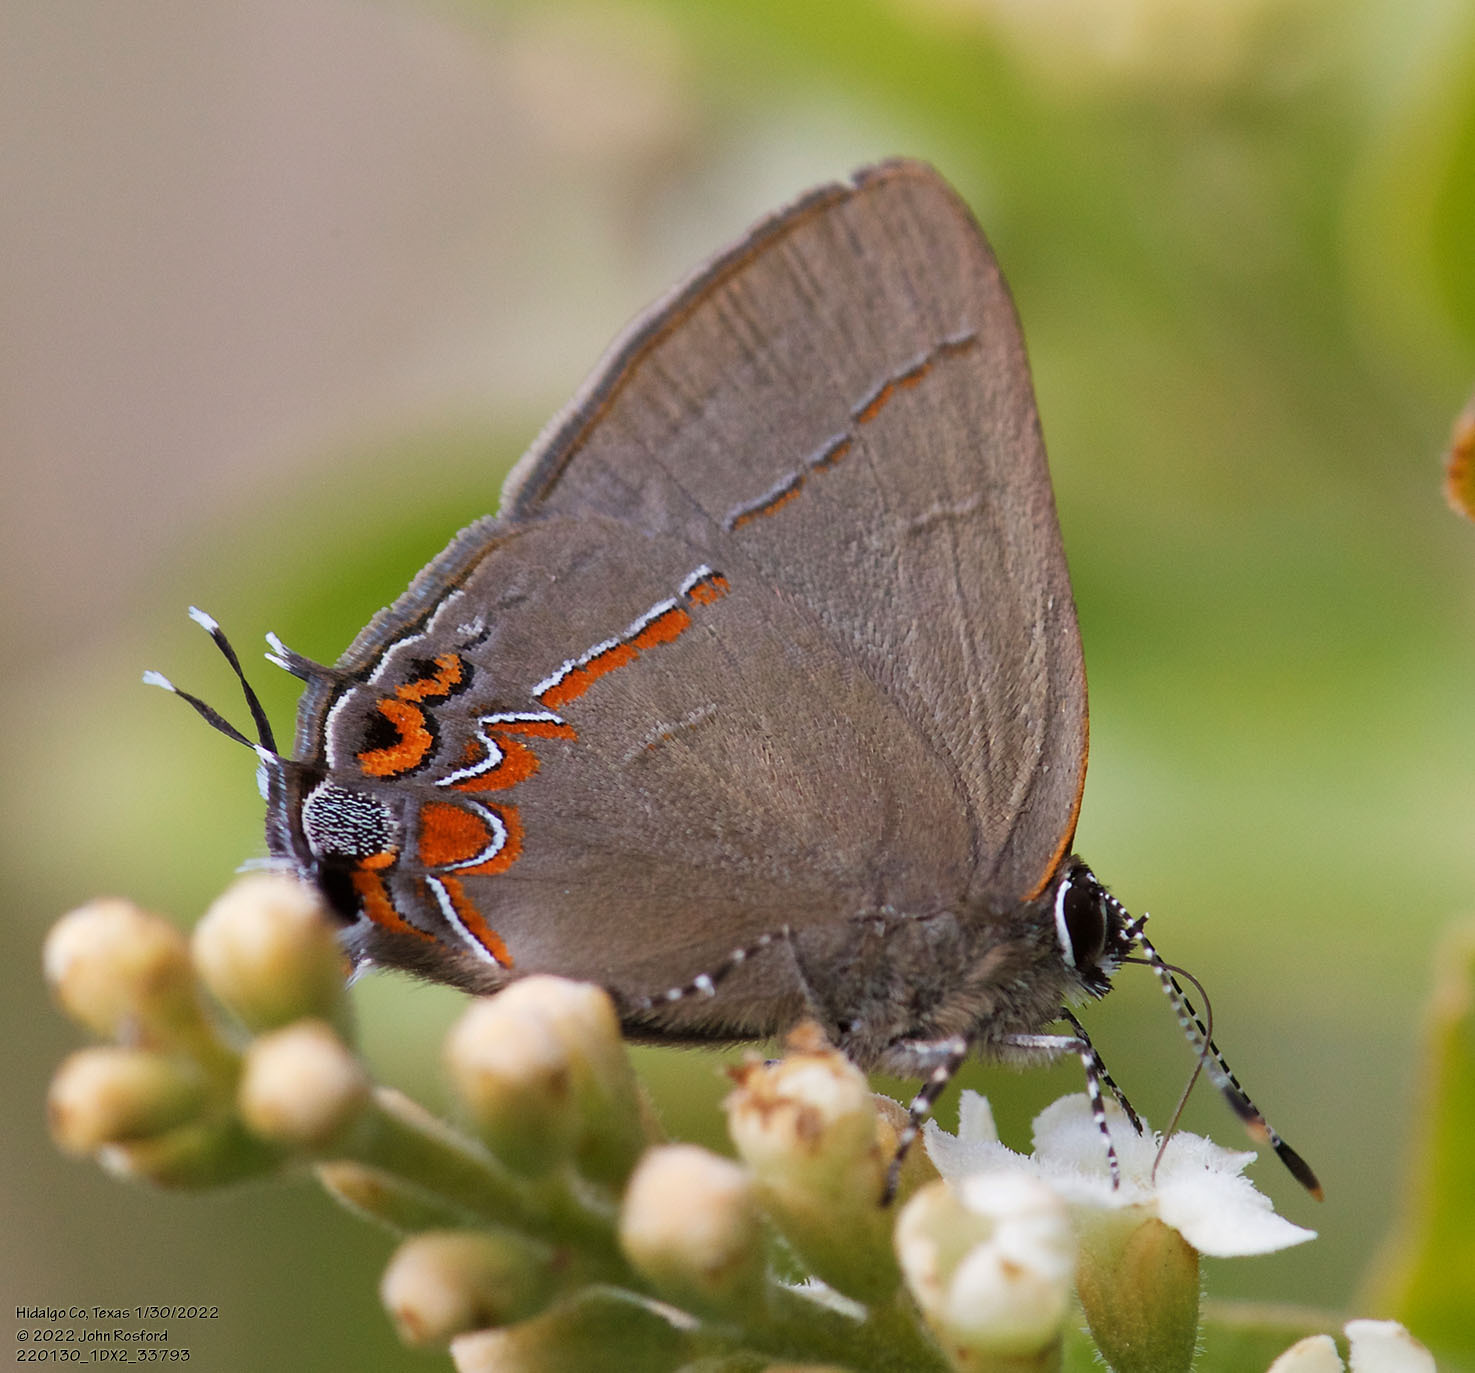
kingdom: Animalia
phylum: Arthropoda
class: Insecta
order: Lepidoptera
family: Lycaenidae
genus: Calycopis
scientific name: Calycopis isobeon
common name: Dusky-blue groundstreak
